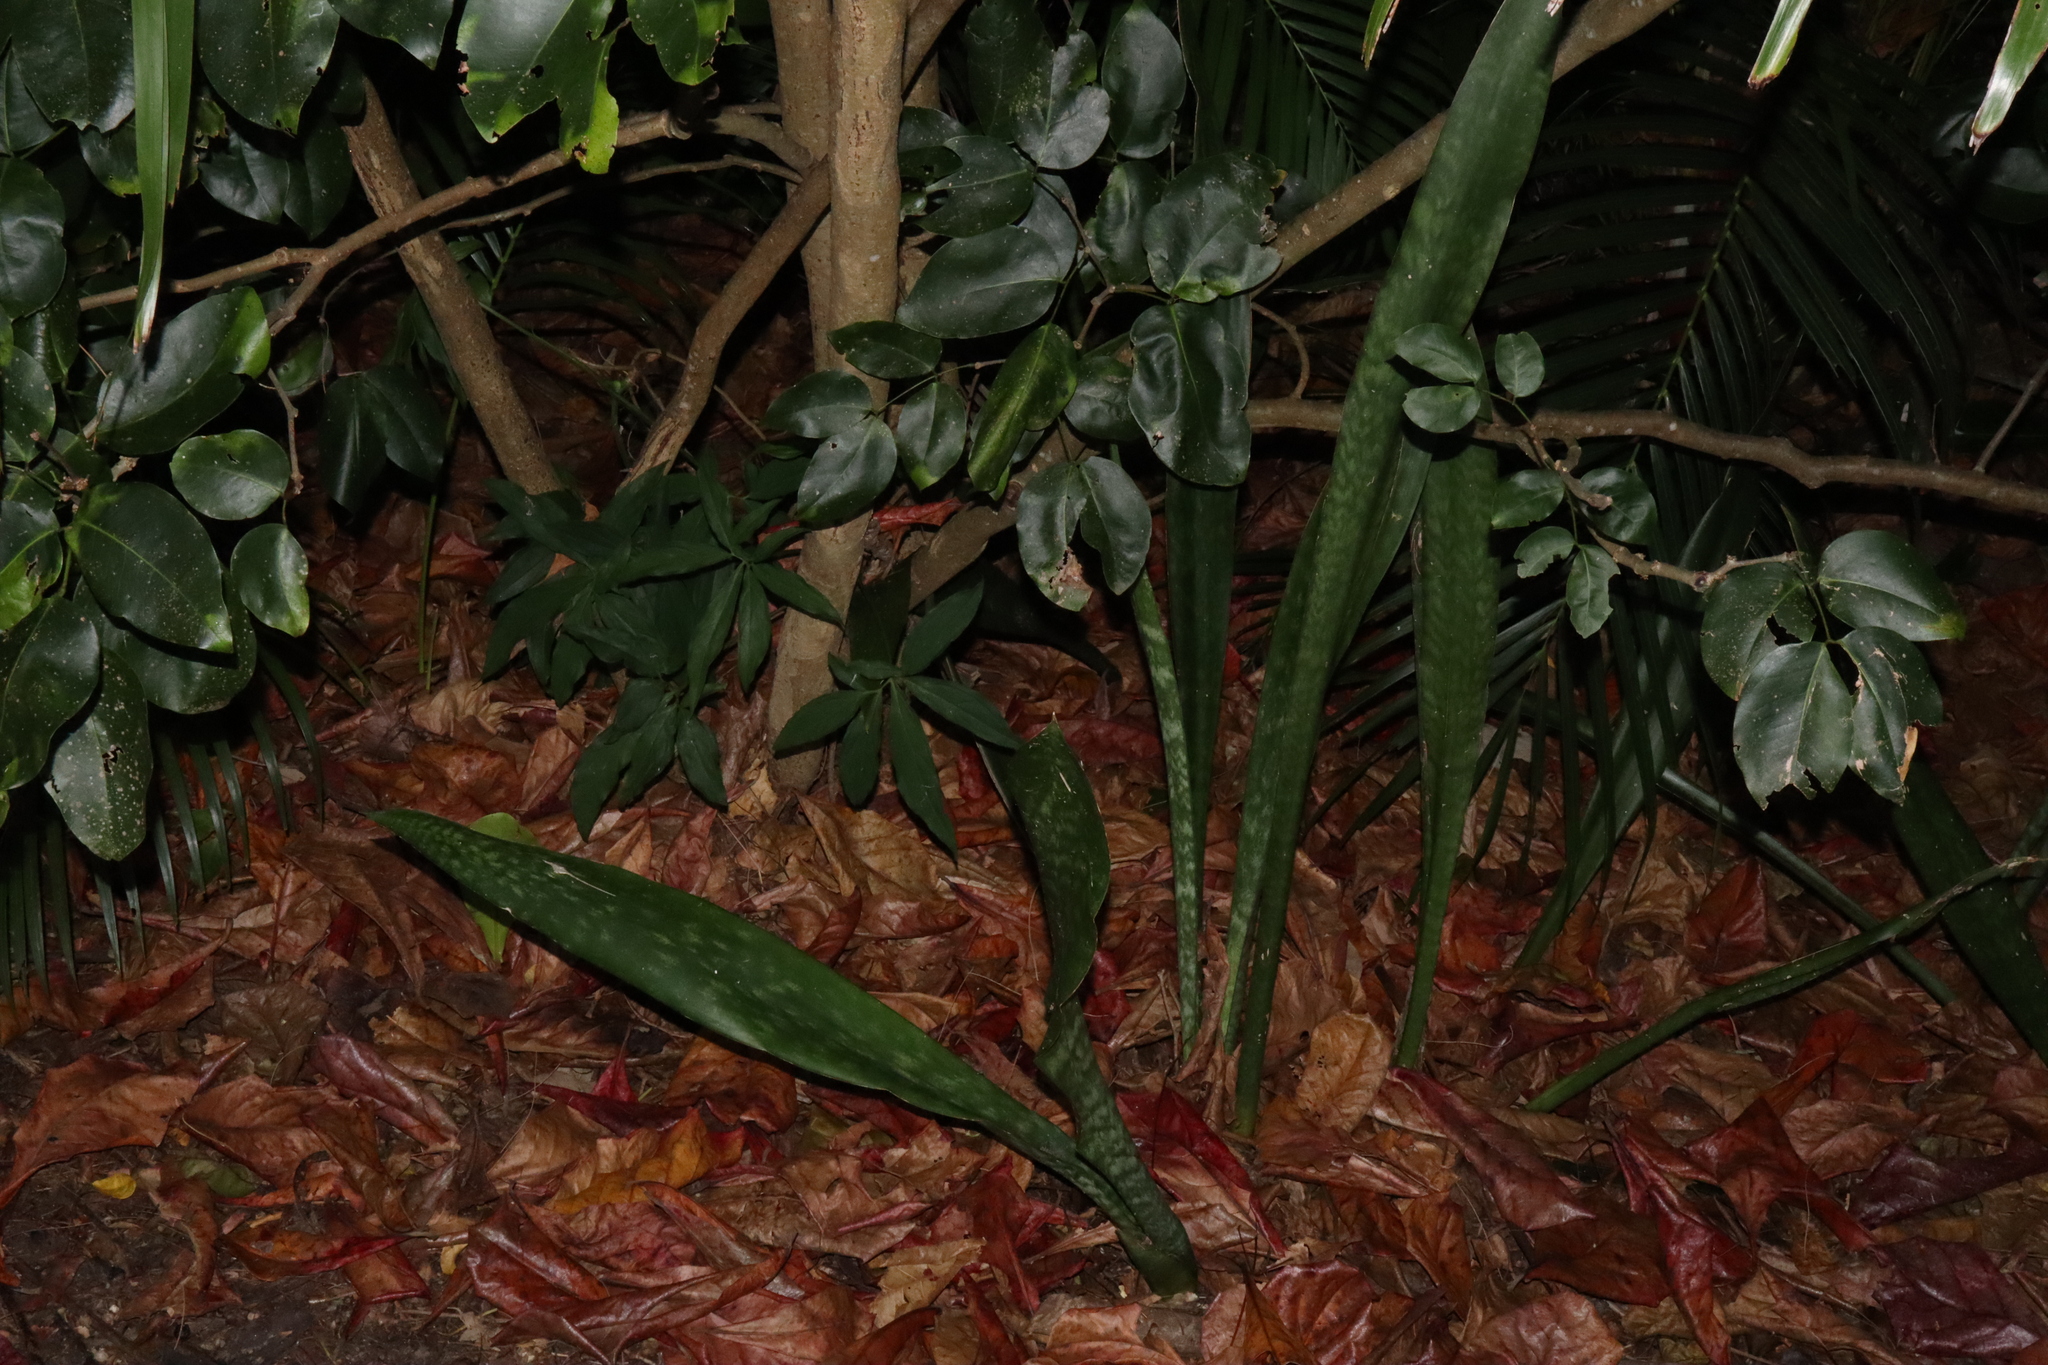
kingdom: Plantae
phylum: Tracheophyta
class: Liliopsida
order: Asparagales
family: Asparagaceae
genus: Dracaena
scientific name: Dracaena trifasciata
